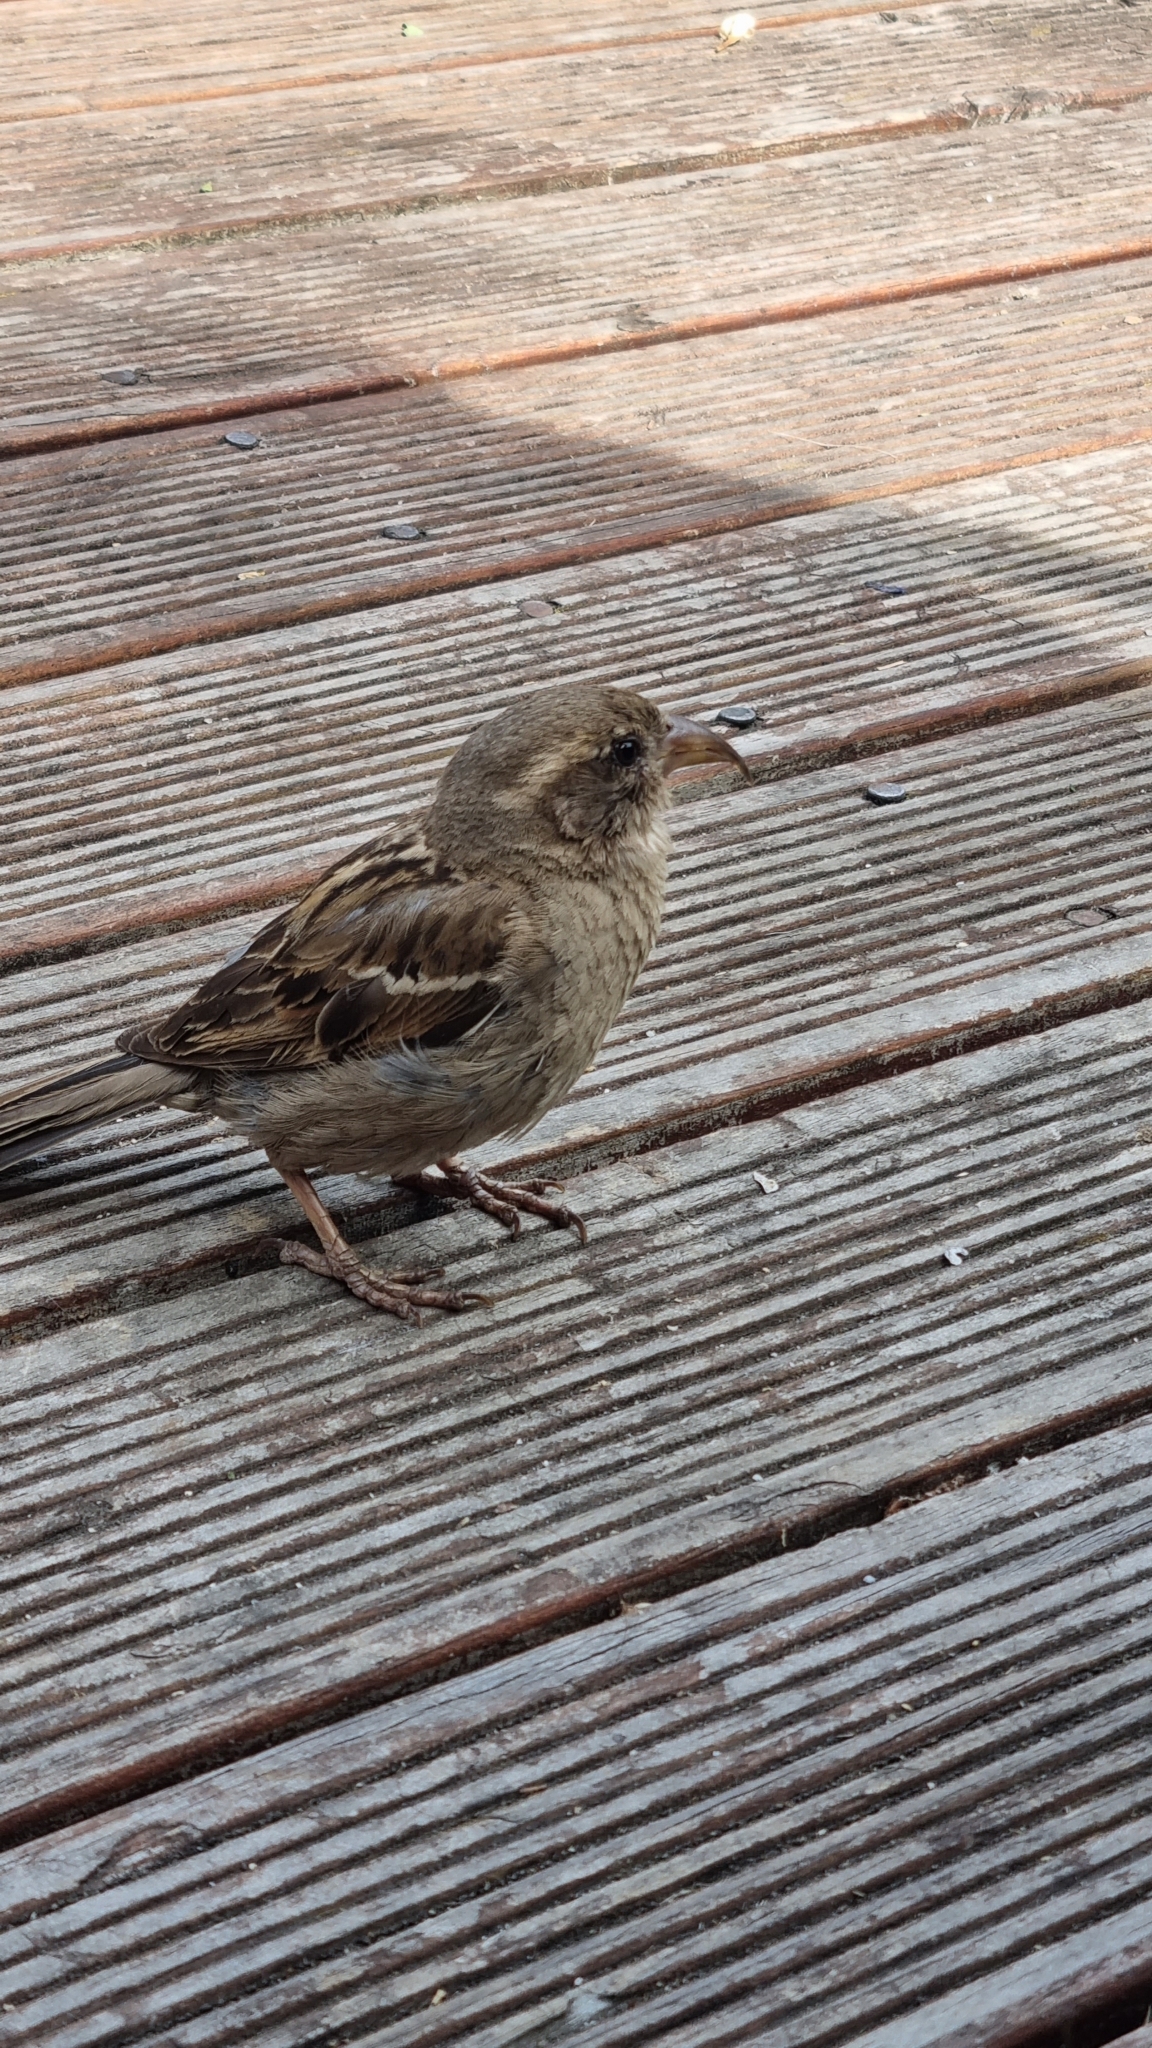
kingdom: Animalia
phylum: Chordata
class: Aves
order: Passeriformes
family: Passeridae
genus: Passer
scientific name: Passer domesticus
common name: House sparrow
